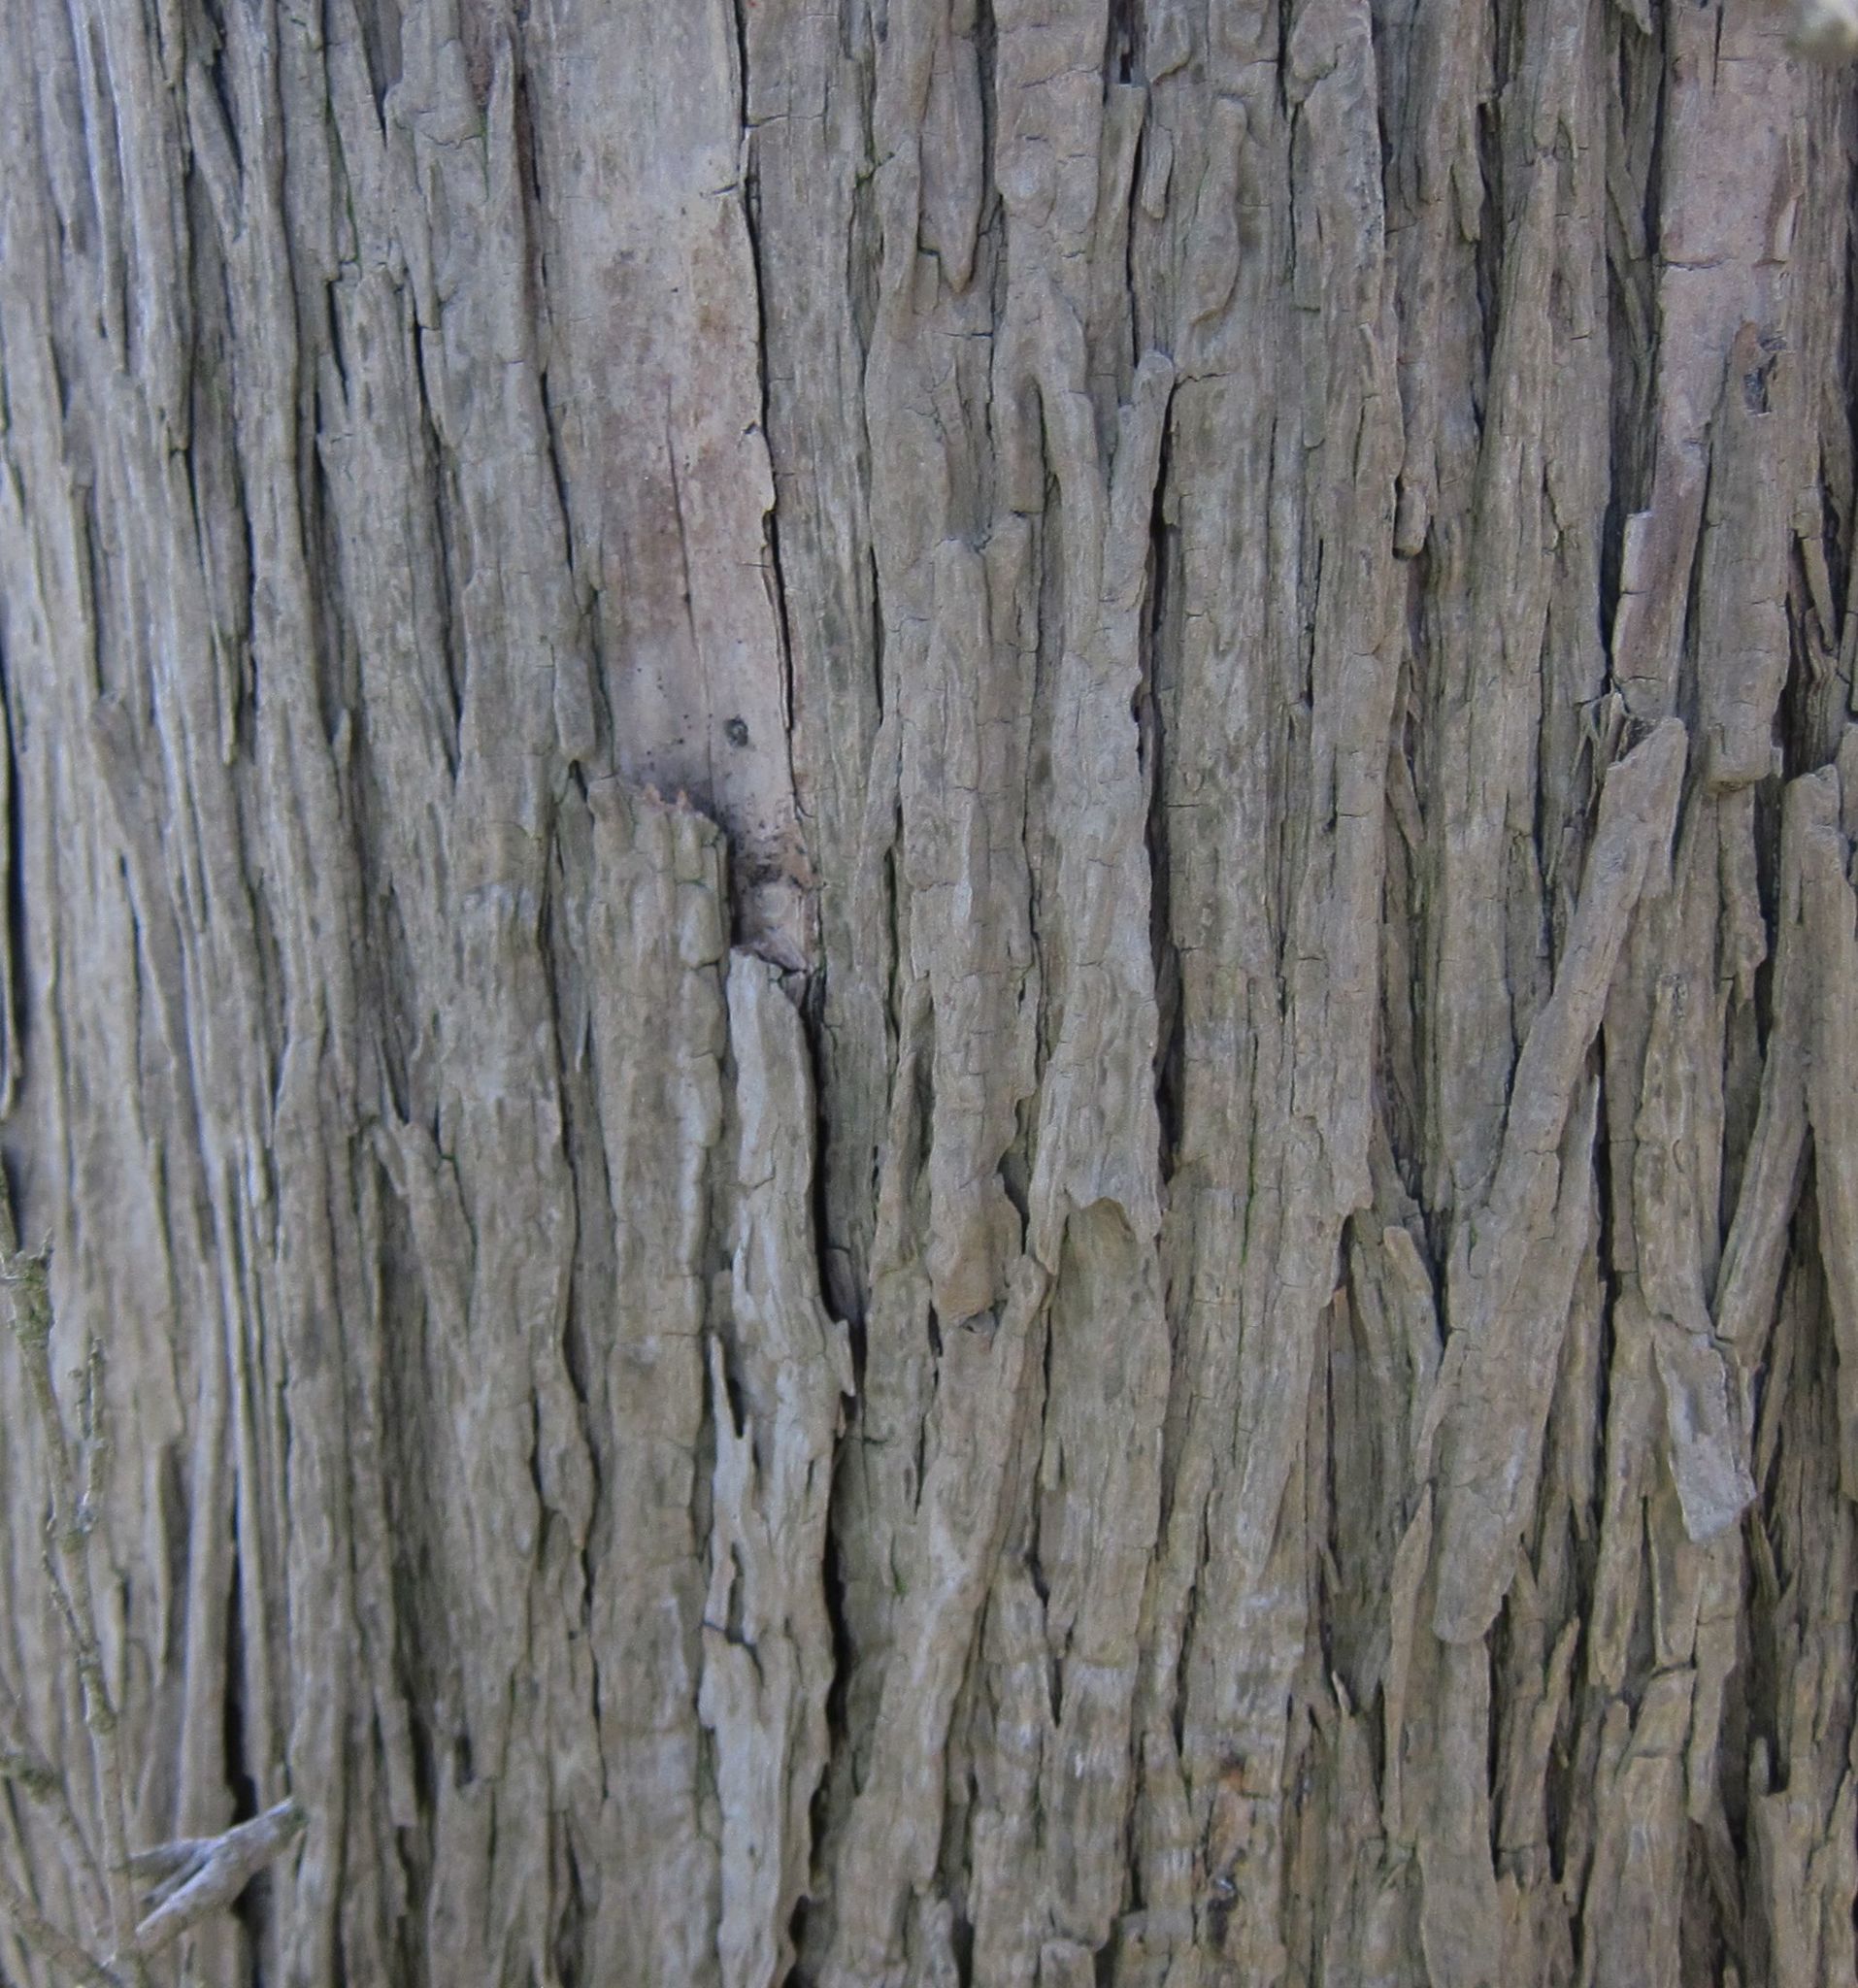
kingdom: Plantae
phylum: Tracheophyta
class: Magnoliopsida
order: Asterales
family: Asteraceae
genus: Olearia
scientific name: Olearia traversiorum
